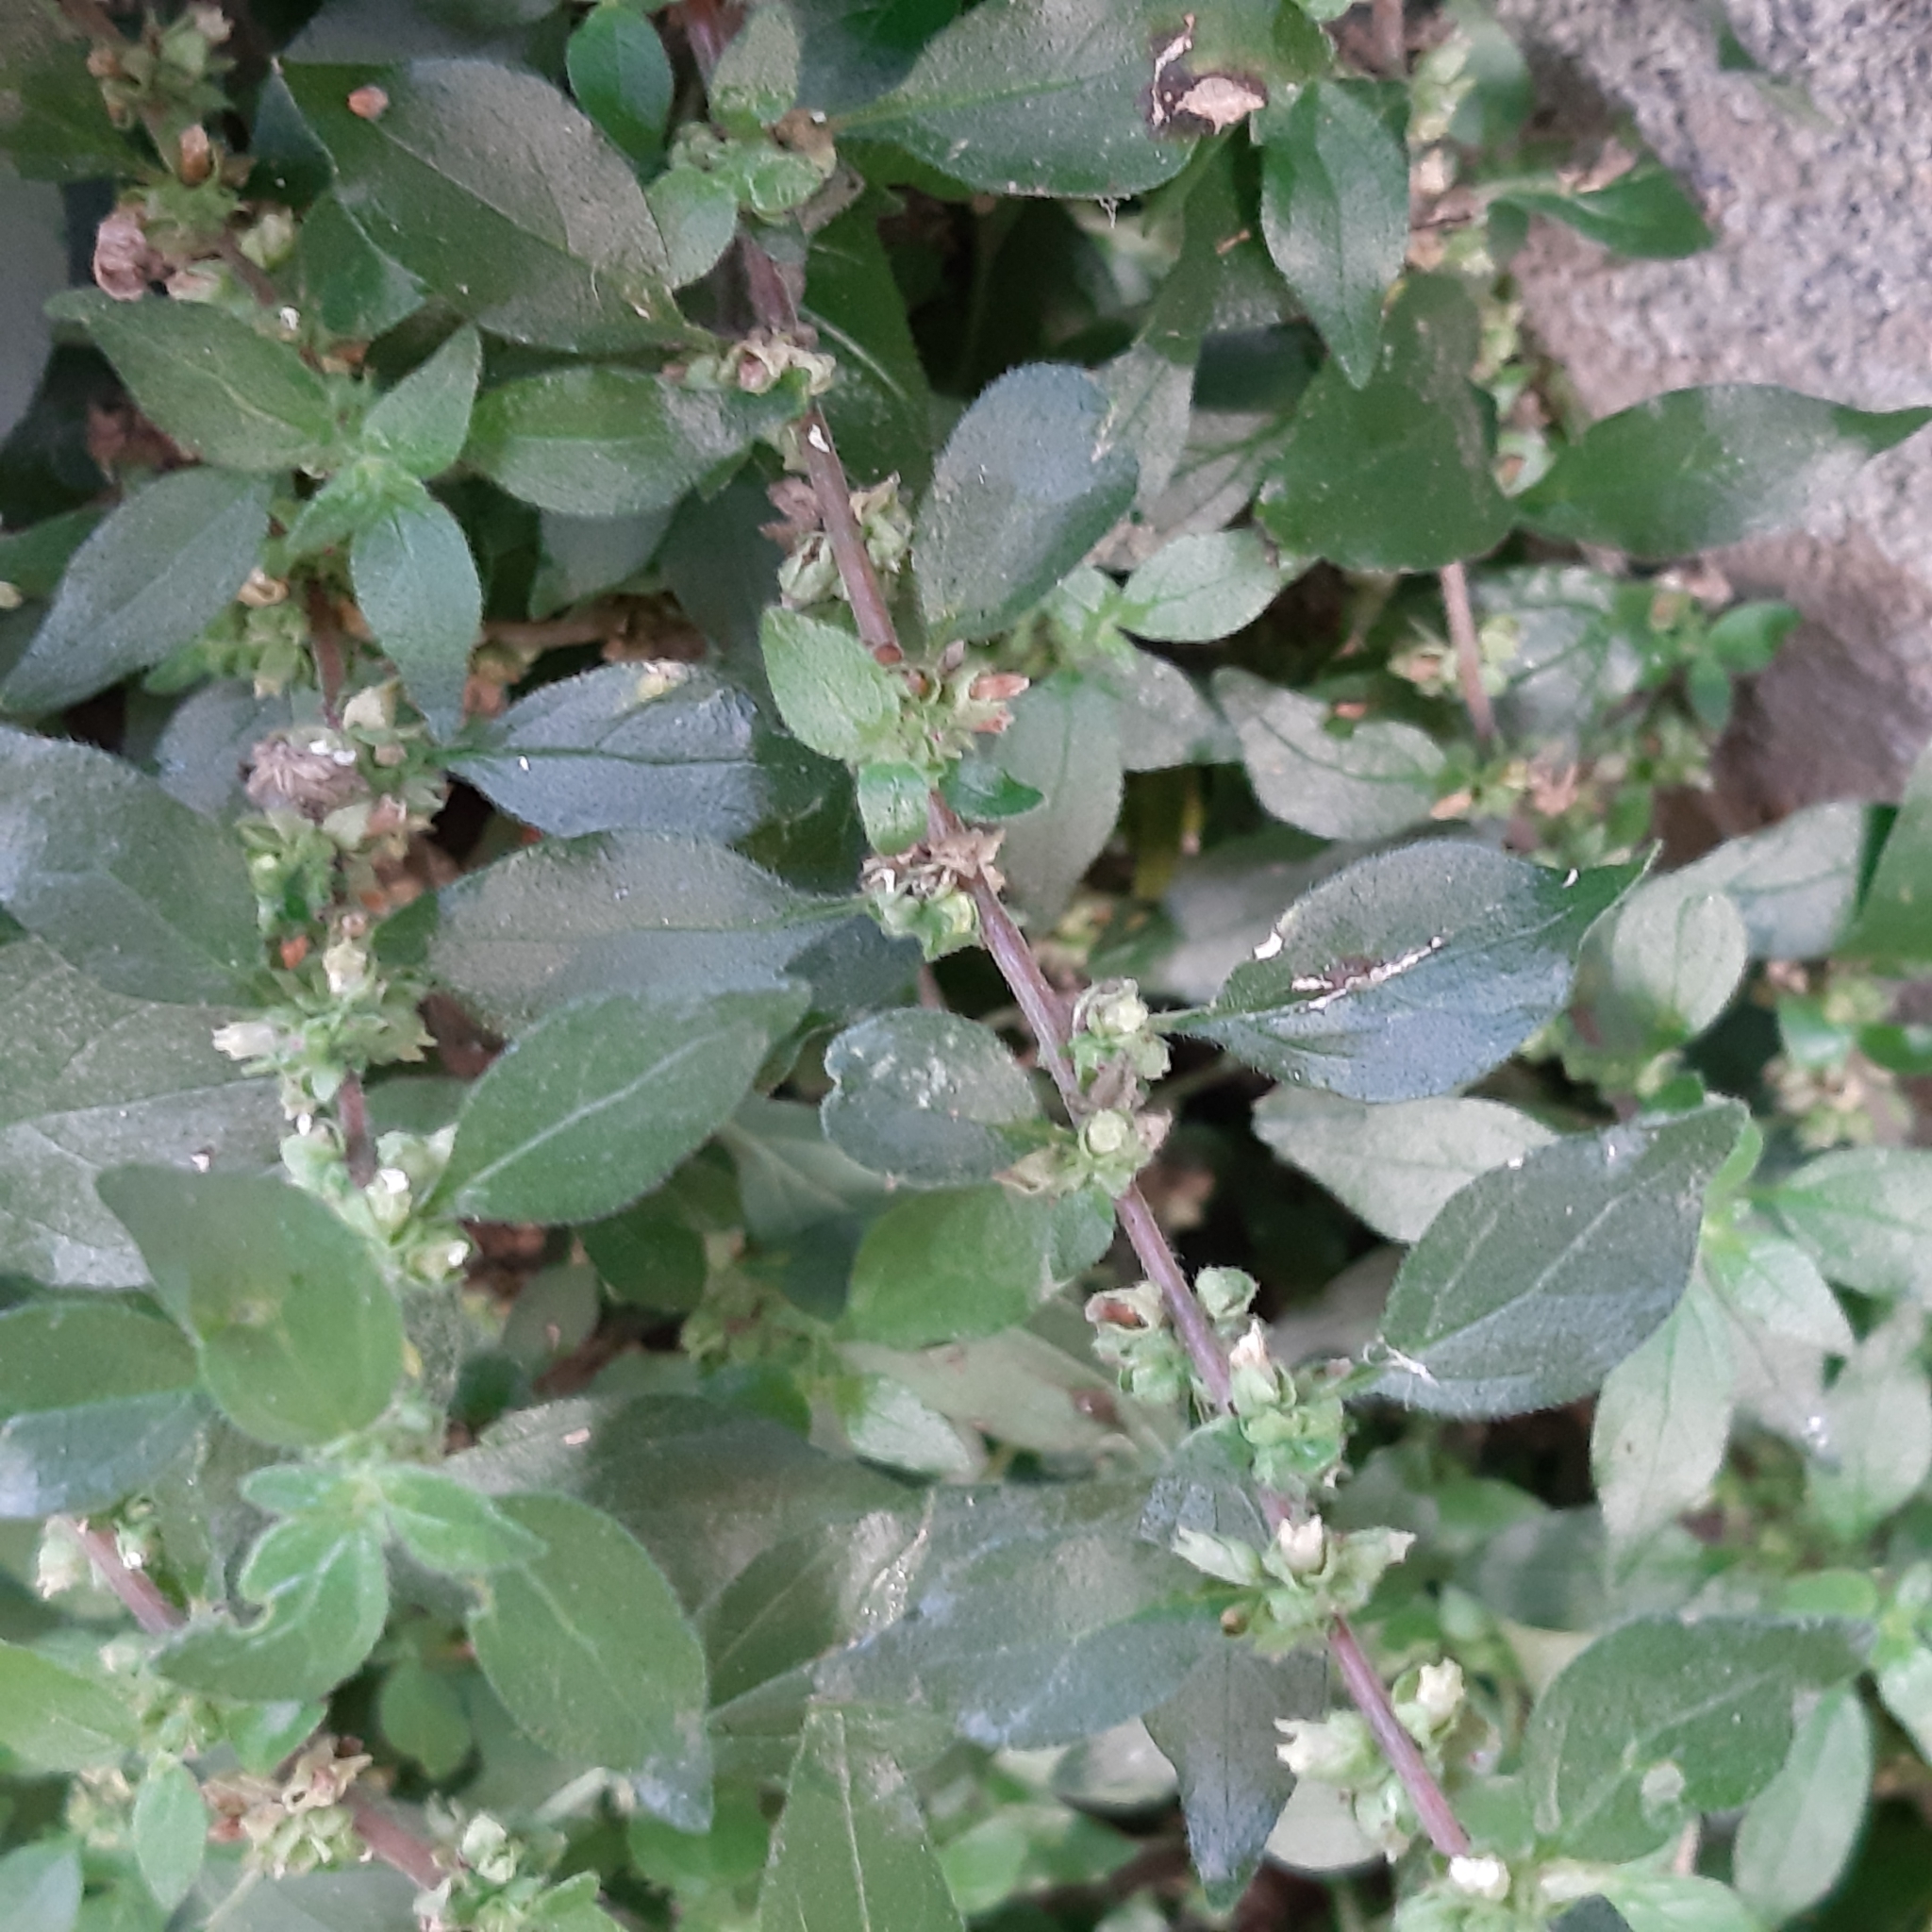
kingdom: Plantae
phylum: Tracheophyta
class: Magnoliopsida
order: Rosales
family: Urticaceae
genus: Parietaria
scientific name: Parietaria judaica
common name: Pellitory-of-the-wall
